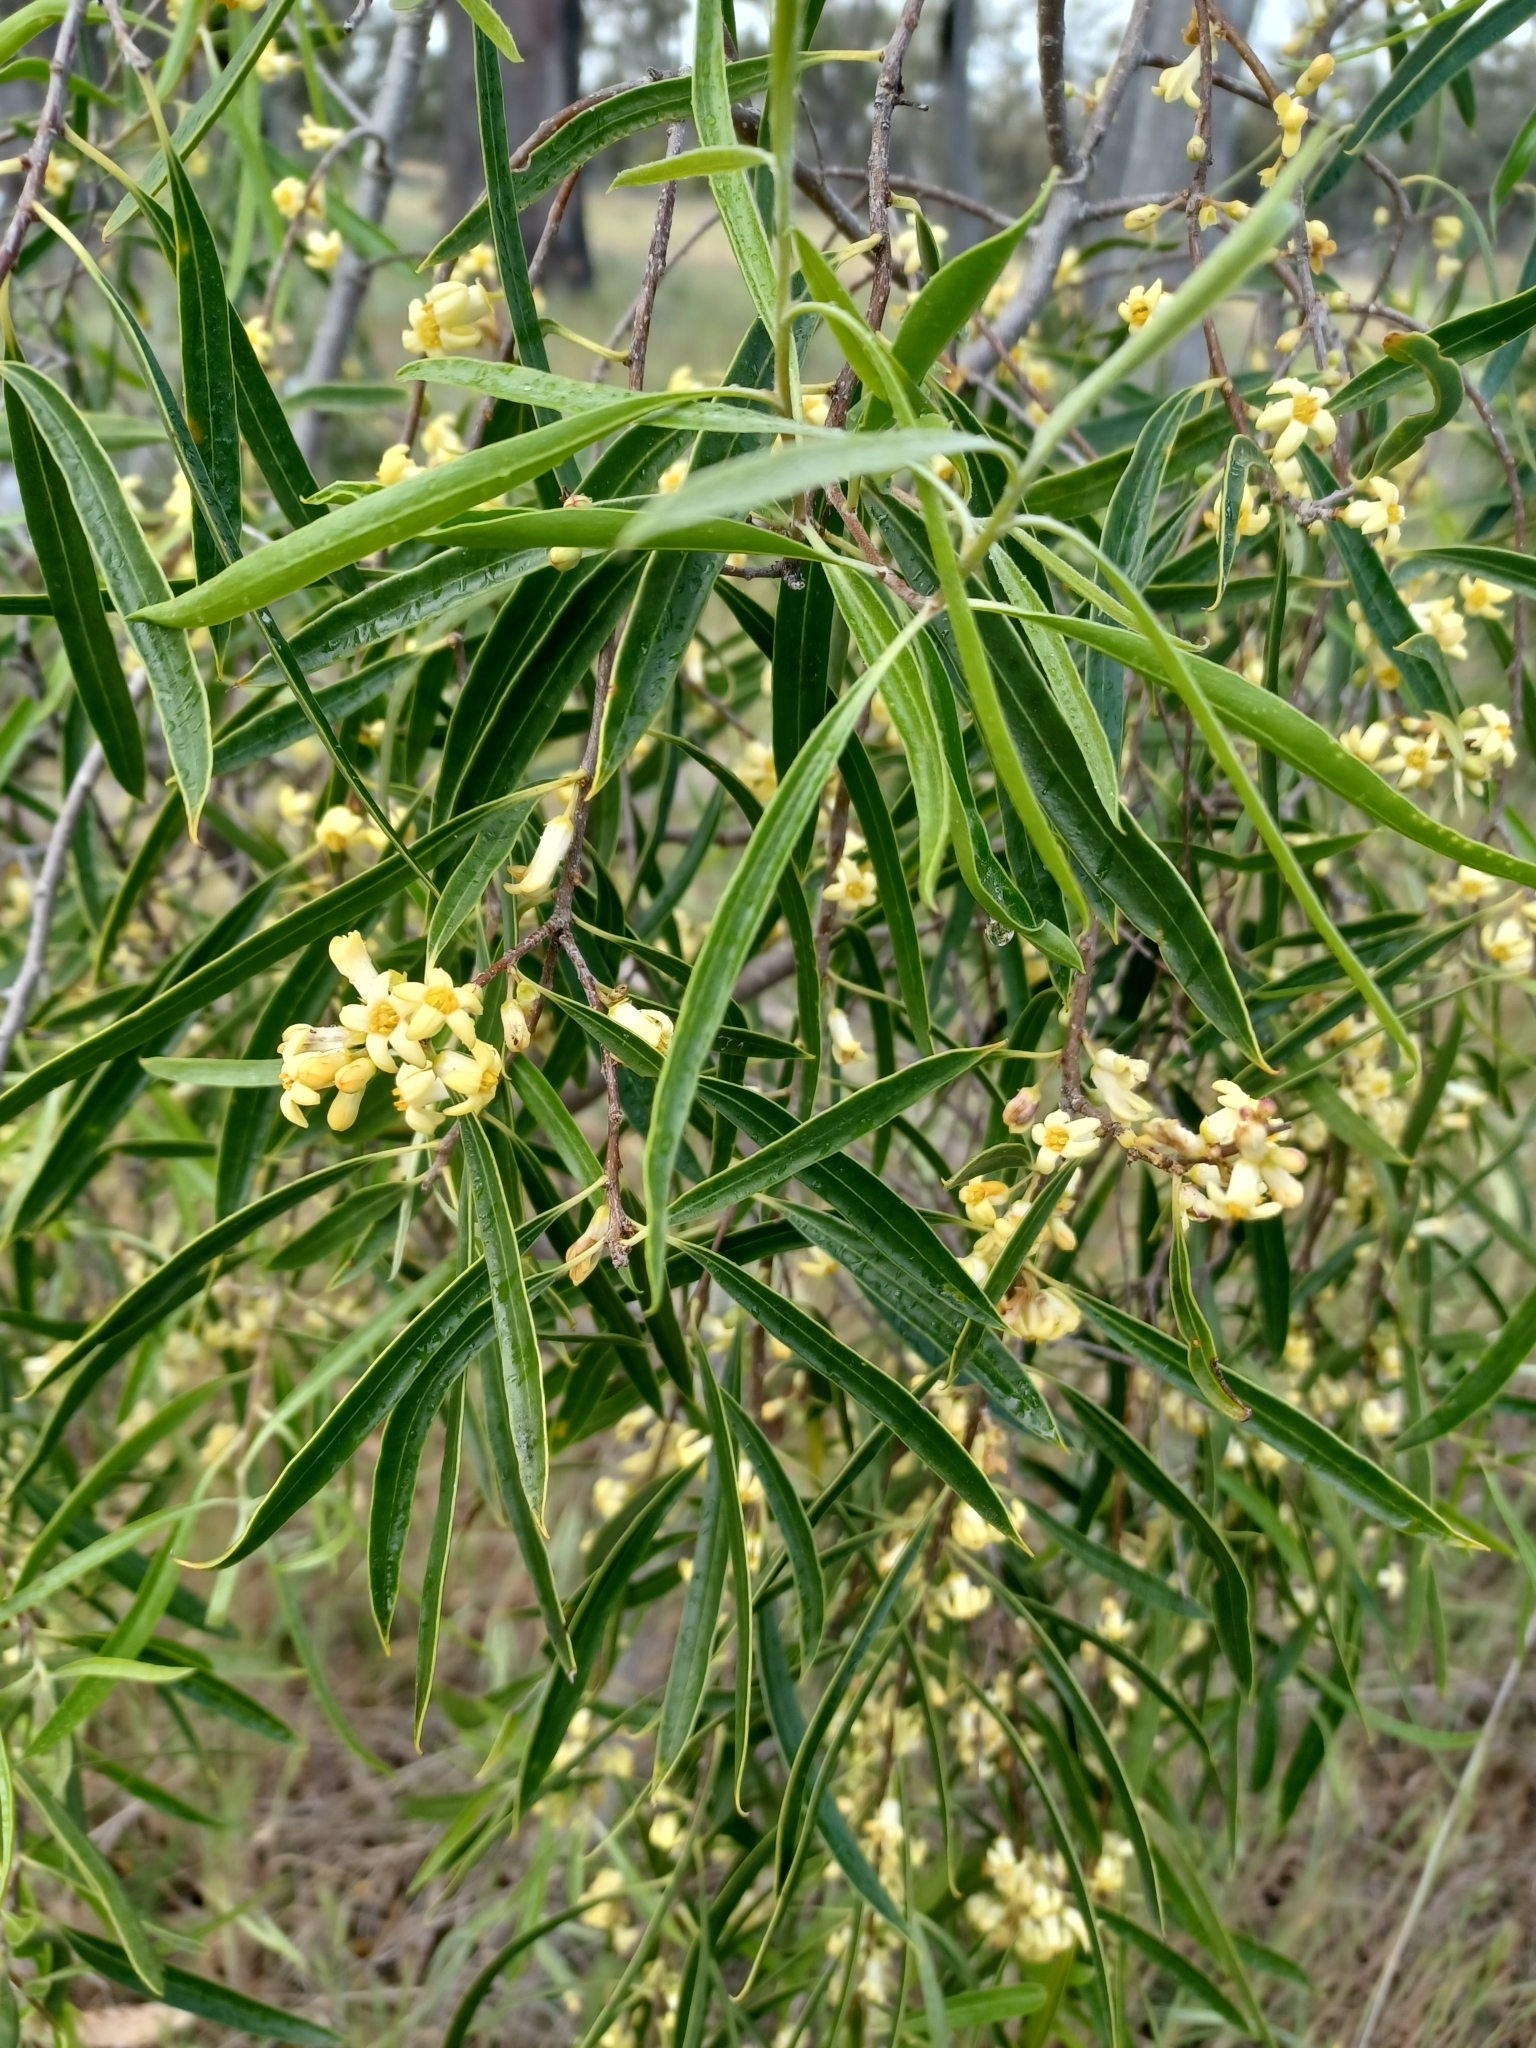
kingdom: Plantae
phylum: Tracheophyta
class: Magnoliopsida
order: Apiales
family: Pittosporaceae
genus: Pittosporum
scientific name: Pittosporum angustifolium
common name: Weeping pittosporum
